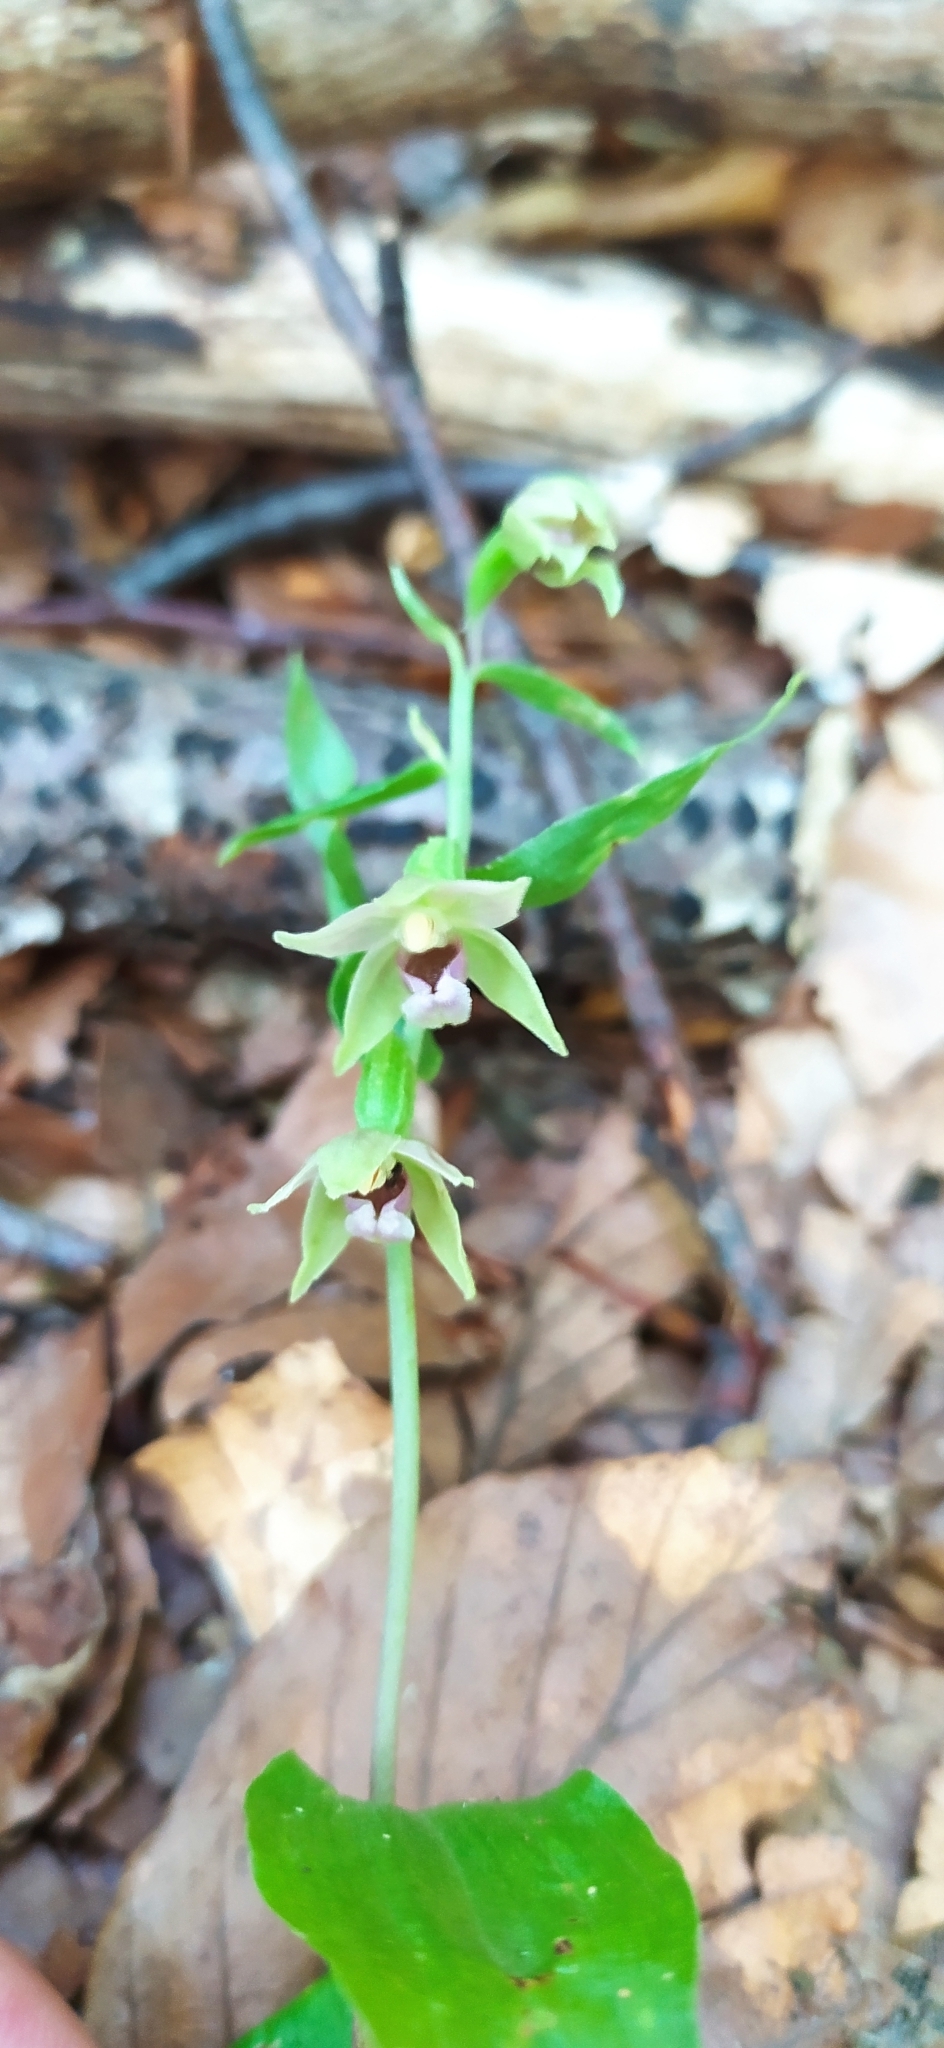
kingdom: Plantae
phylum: Tracheophyta
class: Liliopsida
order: Asparagales
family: Orchidaceae
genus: Epipactis
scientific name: Epipactis persica
